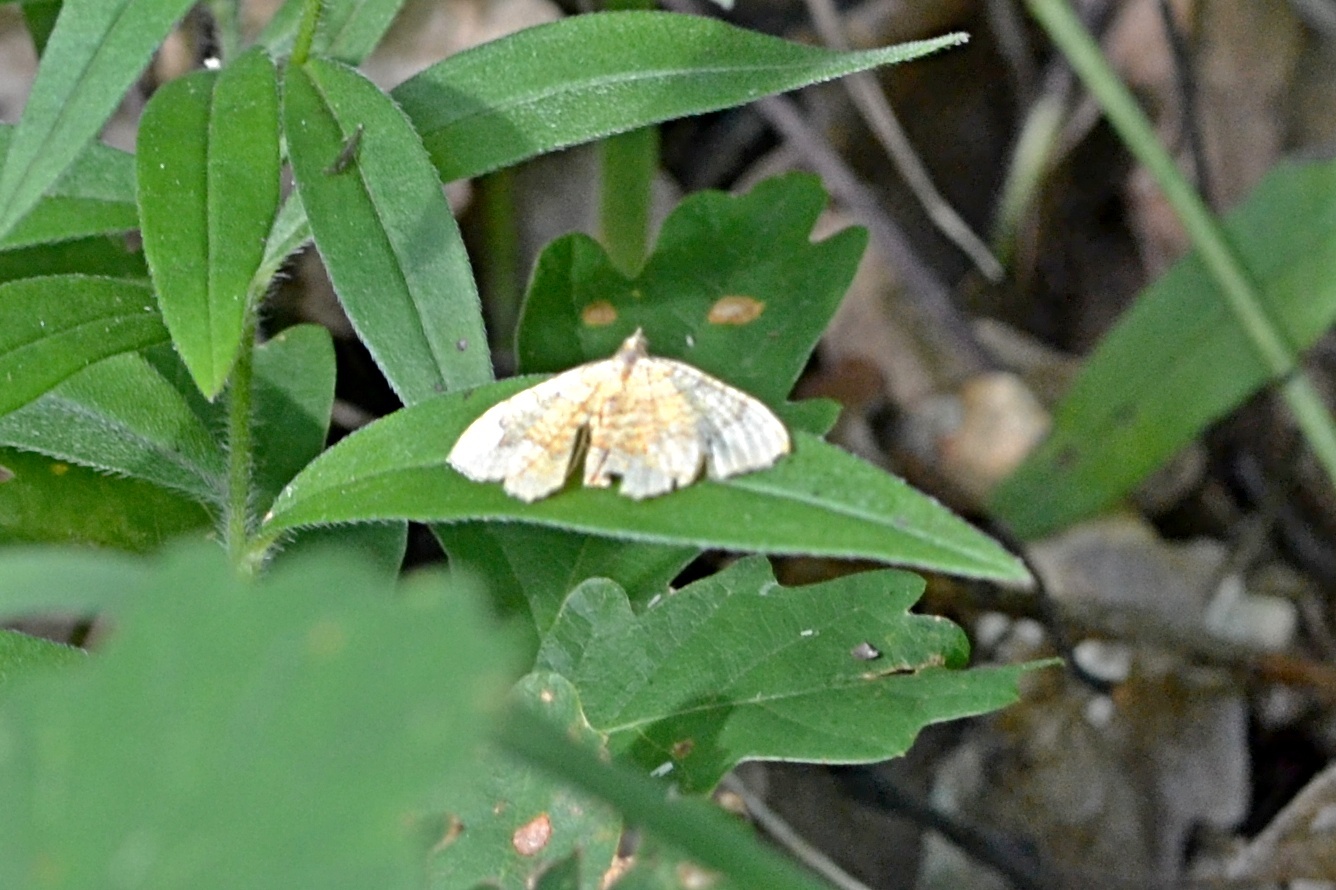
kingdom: Animalia
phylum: Arthropoda
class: Insecta
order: Lepidoptera
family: Geometridae
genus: Camptogramma
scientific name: Camptogramma bilineata
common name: Yellow shell
